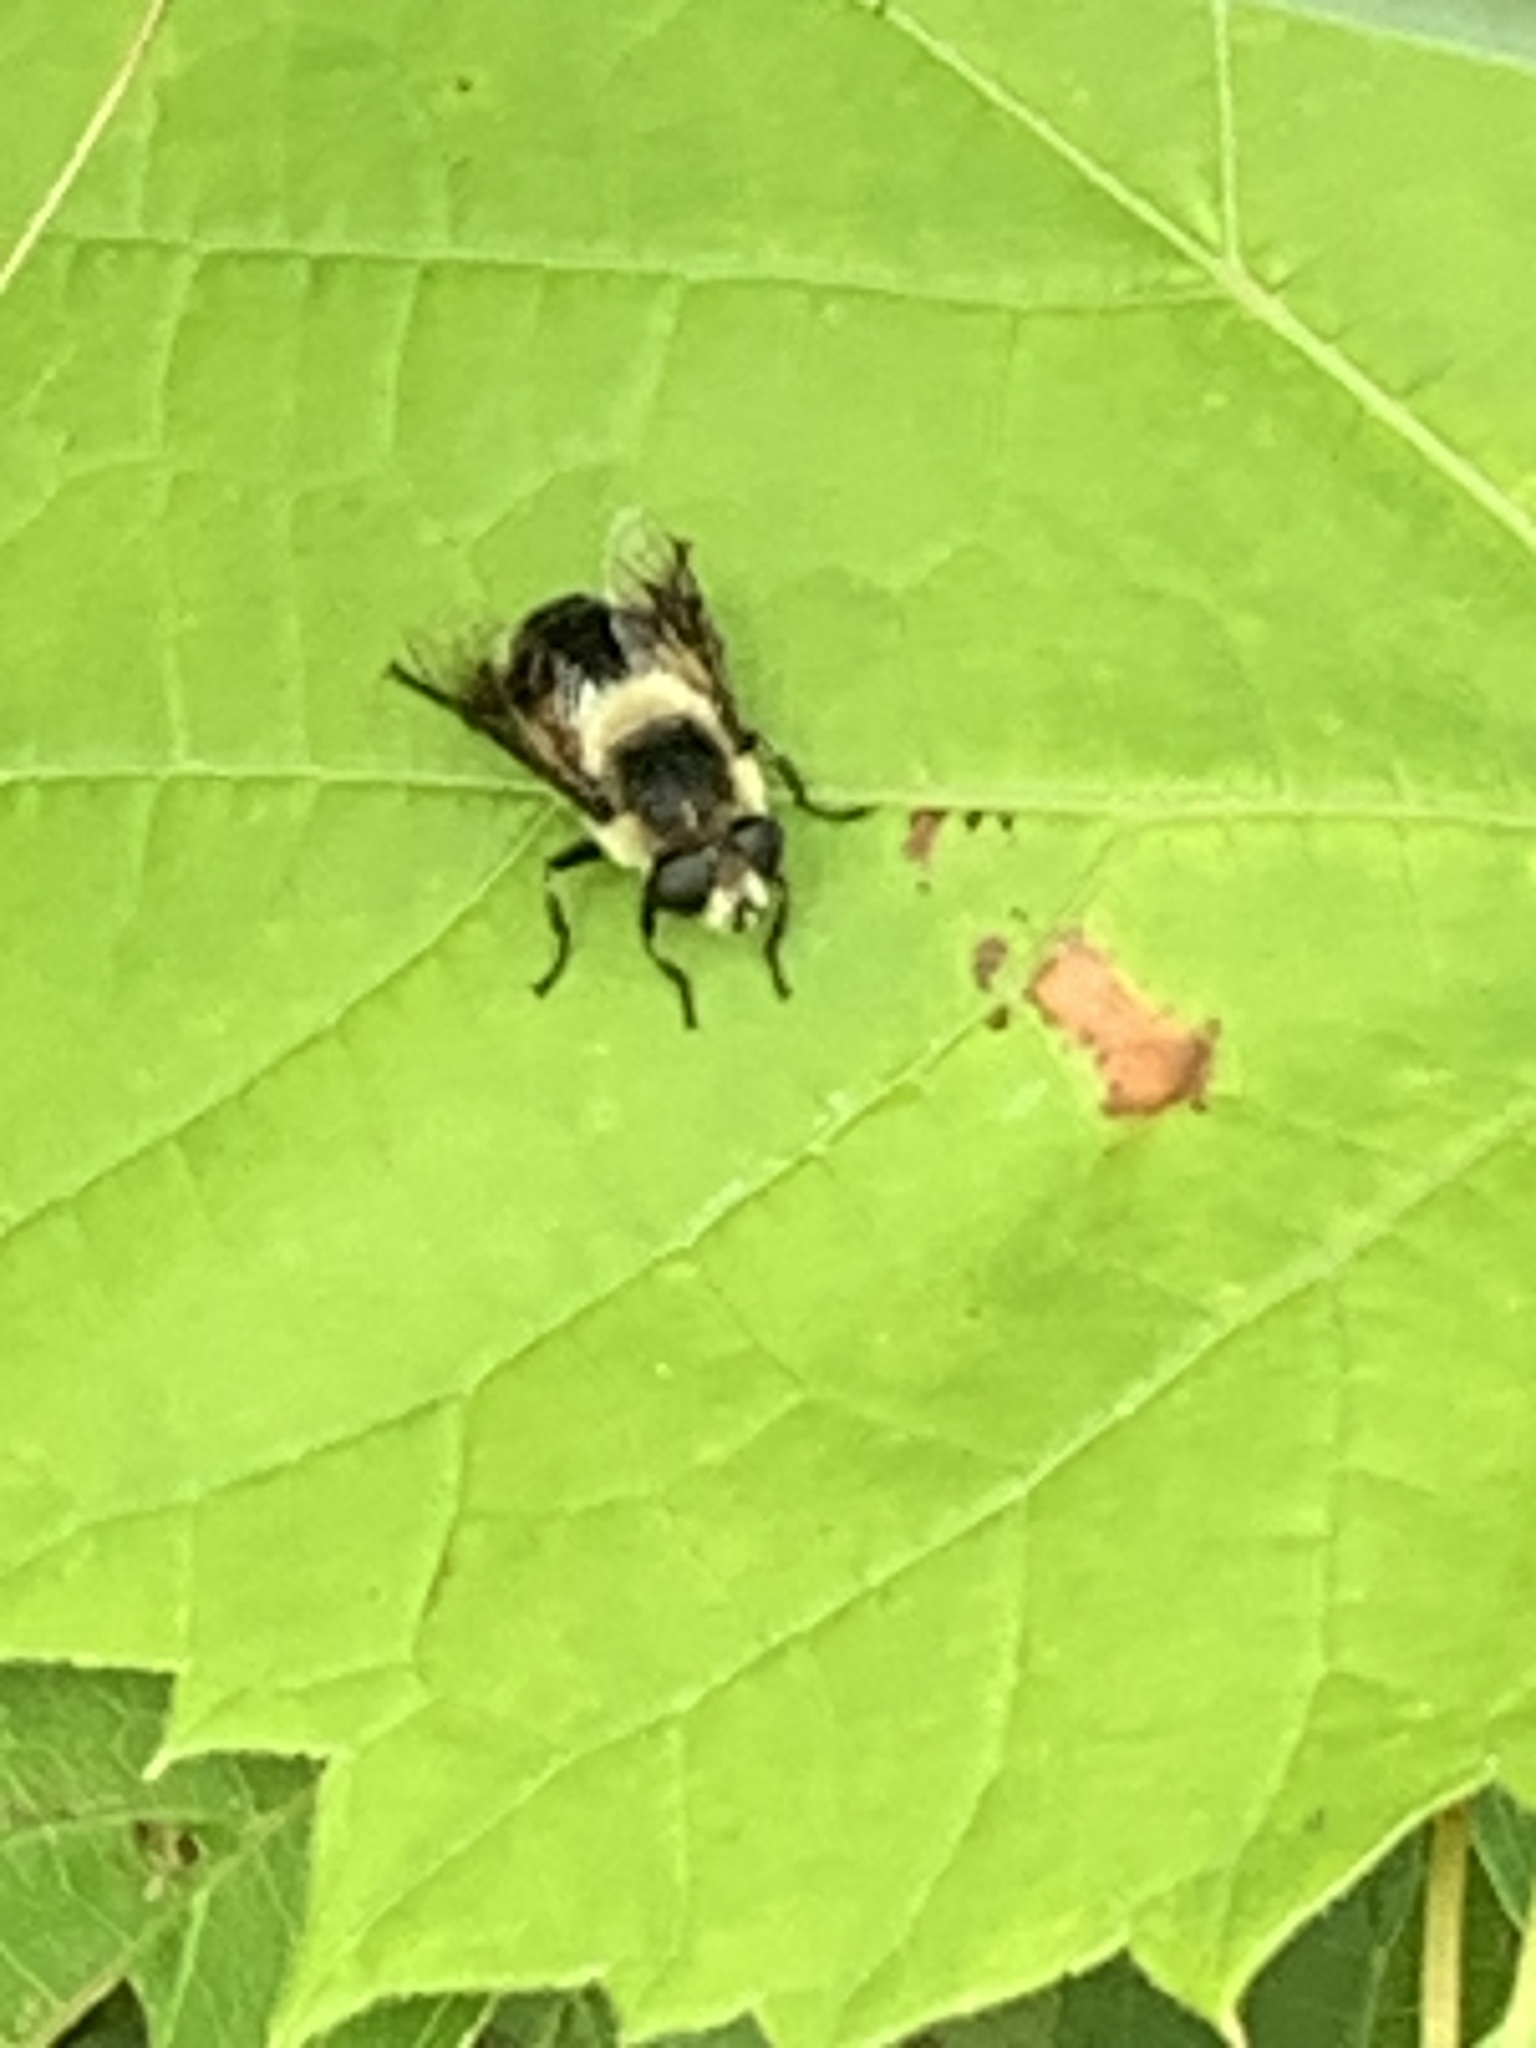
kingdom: Animalia
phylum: Arthropoda
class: Insecta
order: Diptera
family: Syrphidae
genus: Eristalis
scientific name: Eristalis anthophorina
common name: Orange-spotted drone fly
